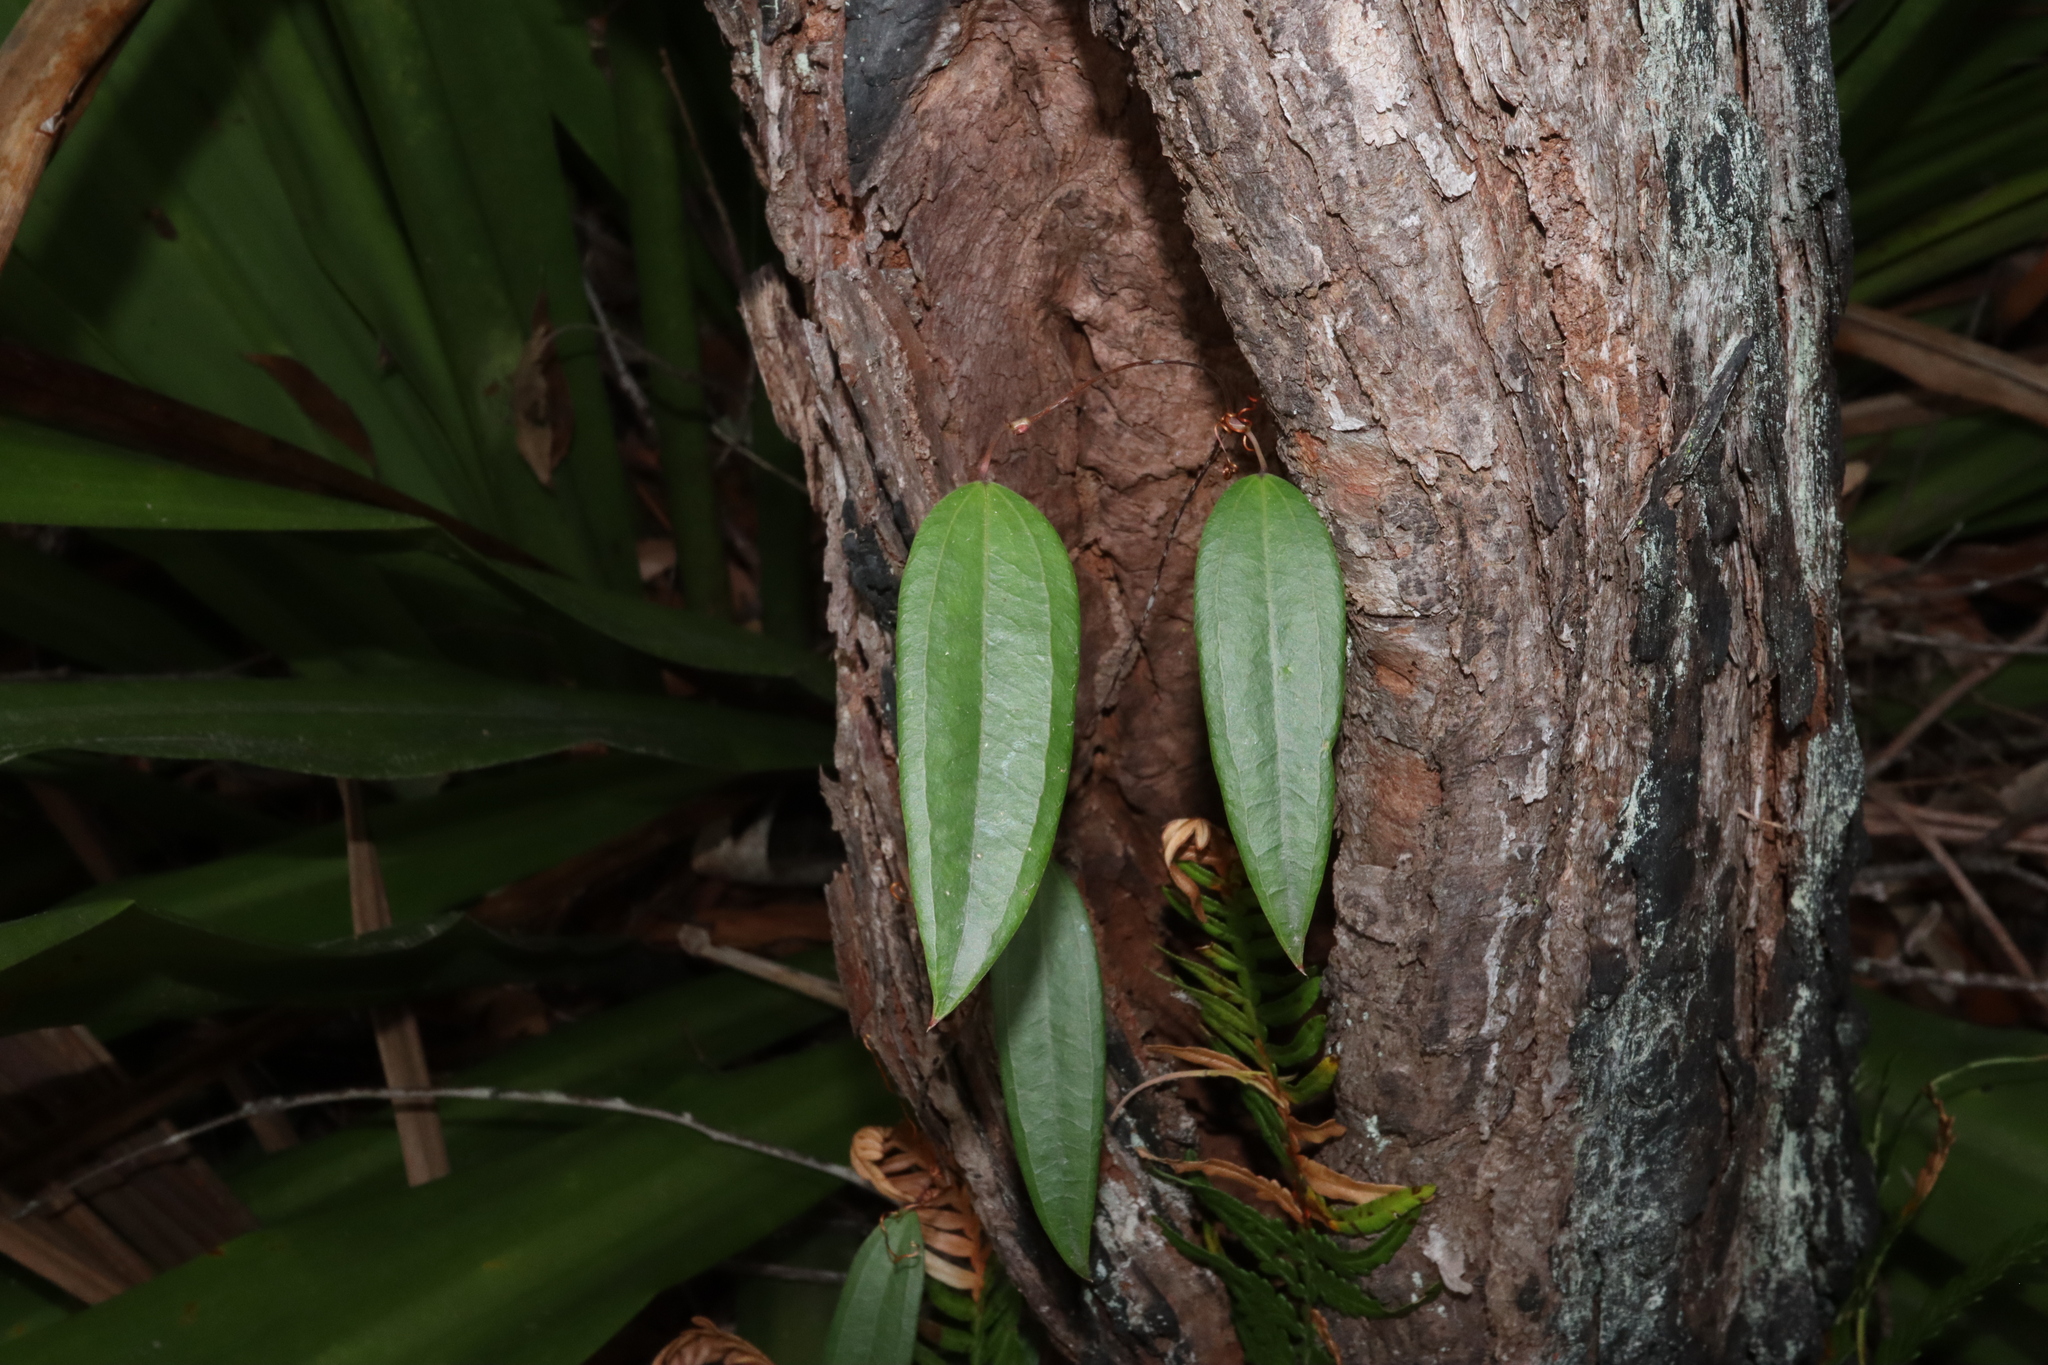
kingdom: Plantae
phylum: Tracheophyta
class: Liliopsida
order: Liliales
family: Smilacaceae
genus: Smilax
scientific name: Smilax glyciphylla
